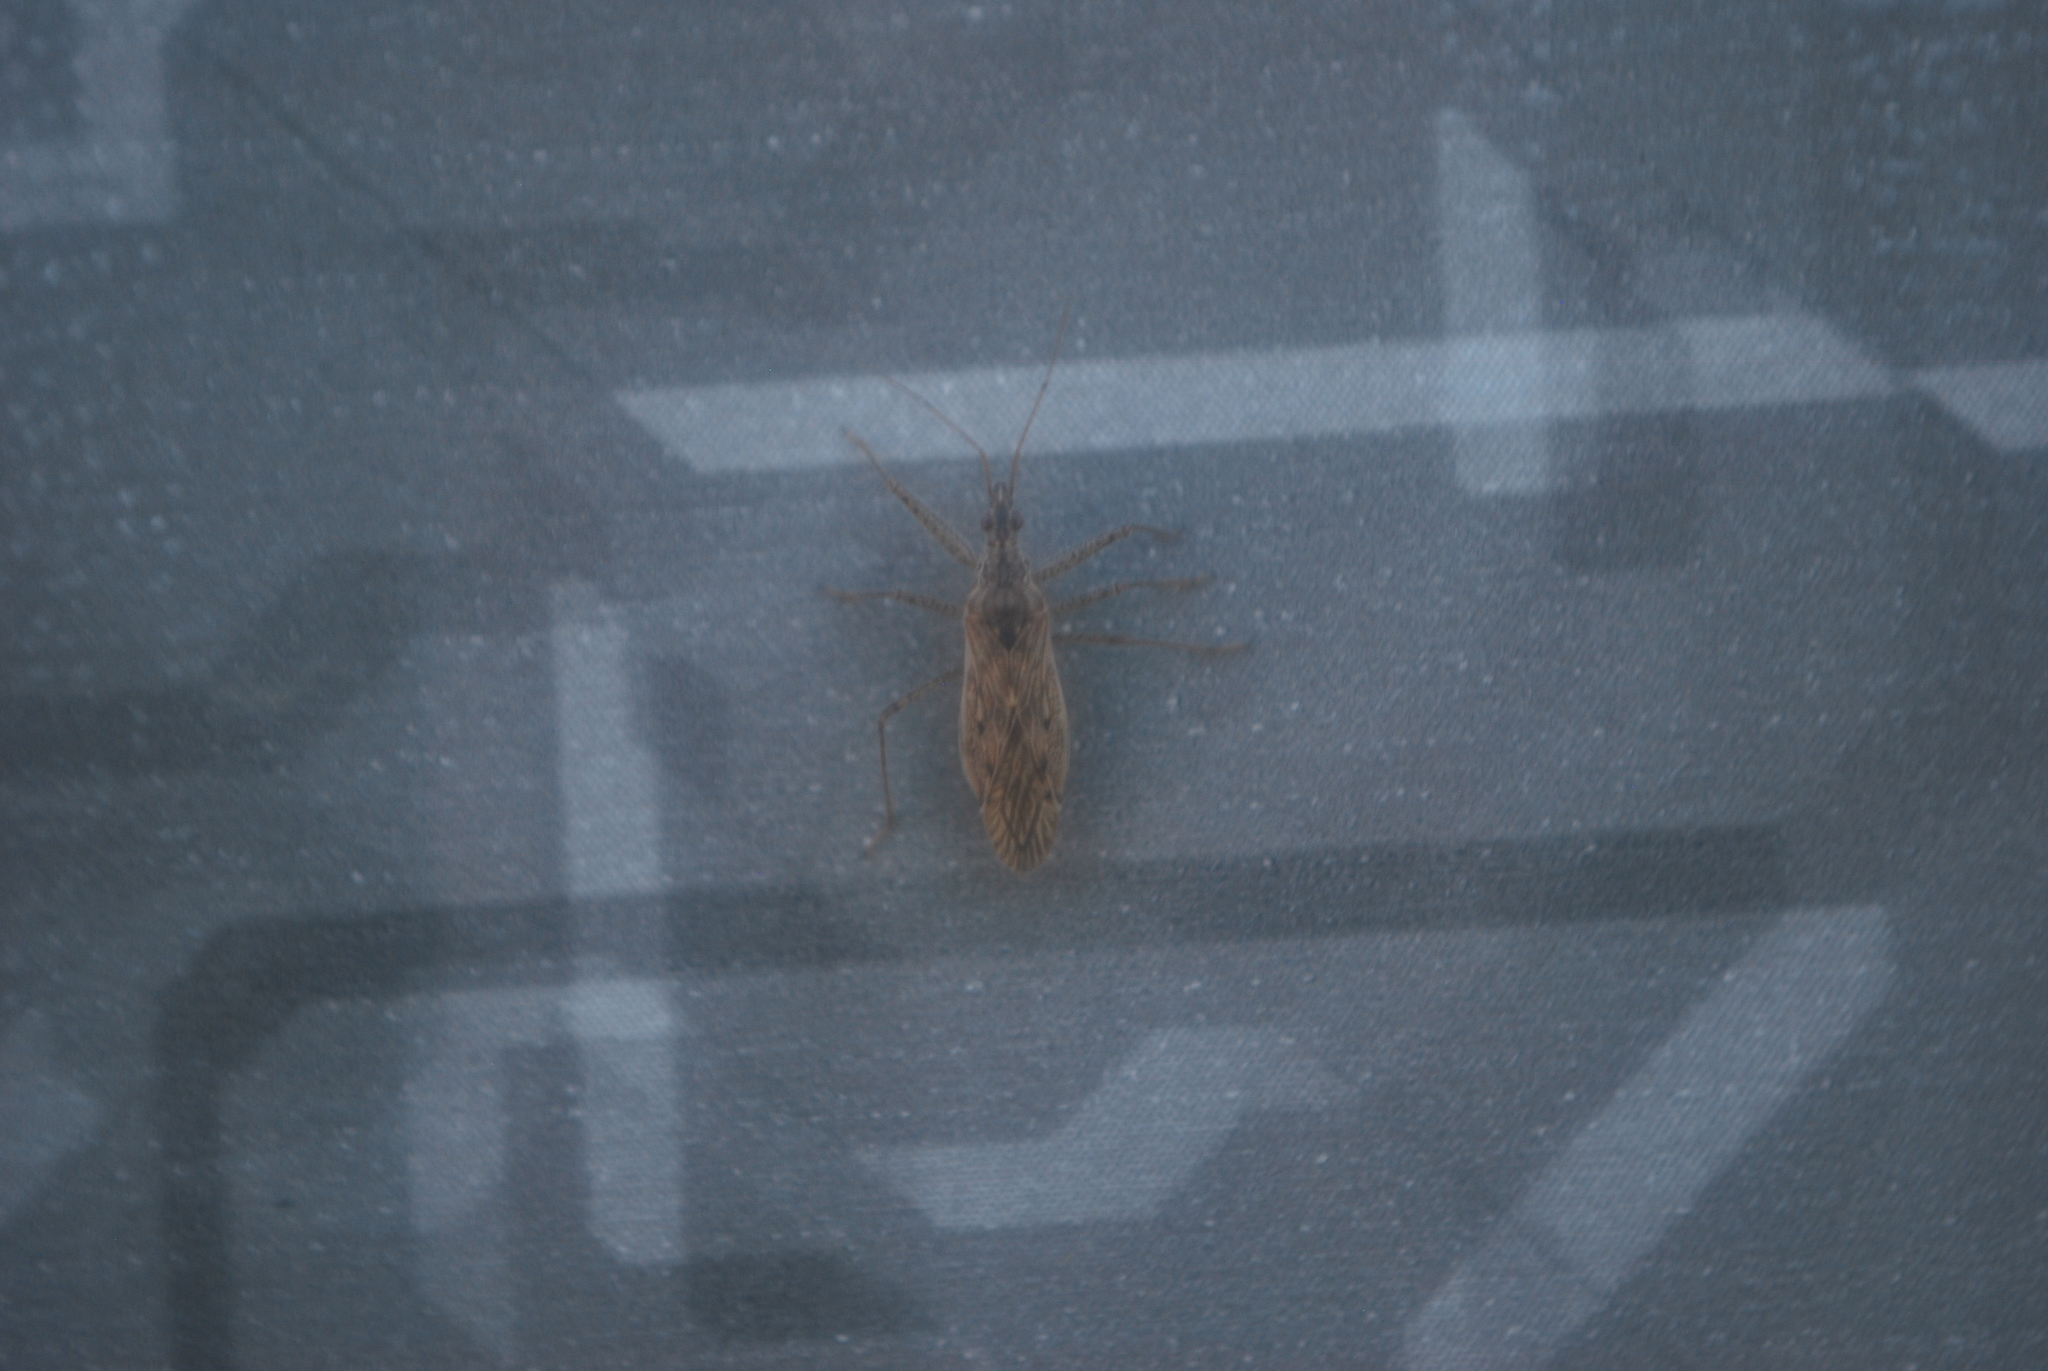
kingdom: Animalia
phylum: Arthropoda
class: Insecta
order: Hemiptera
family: Nabidae
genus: Nabis
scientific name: Nabis roseipennis
